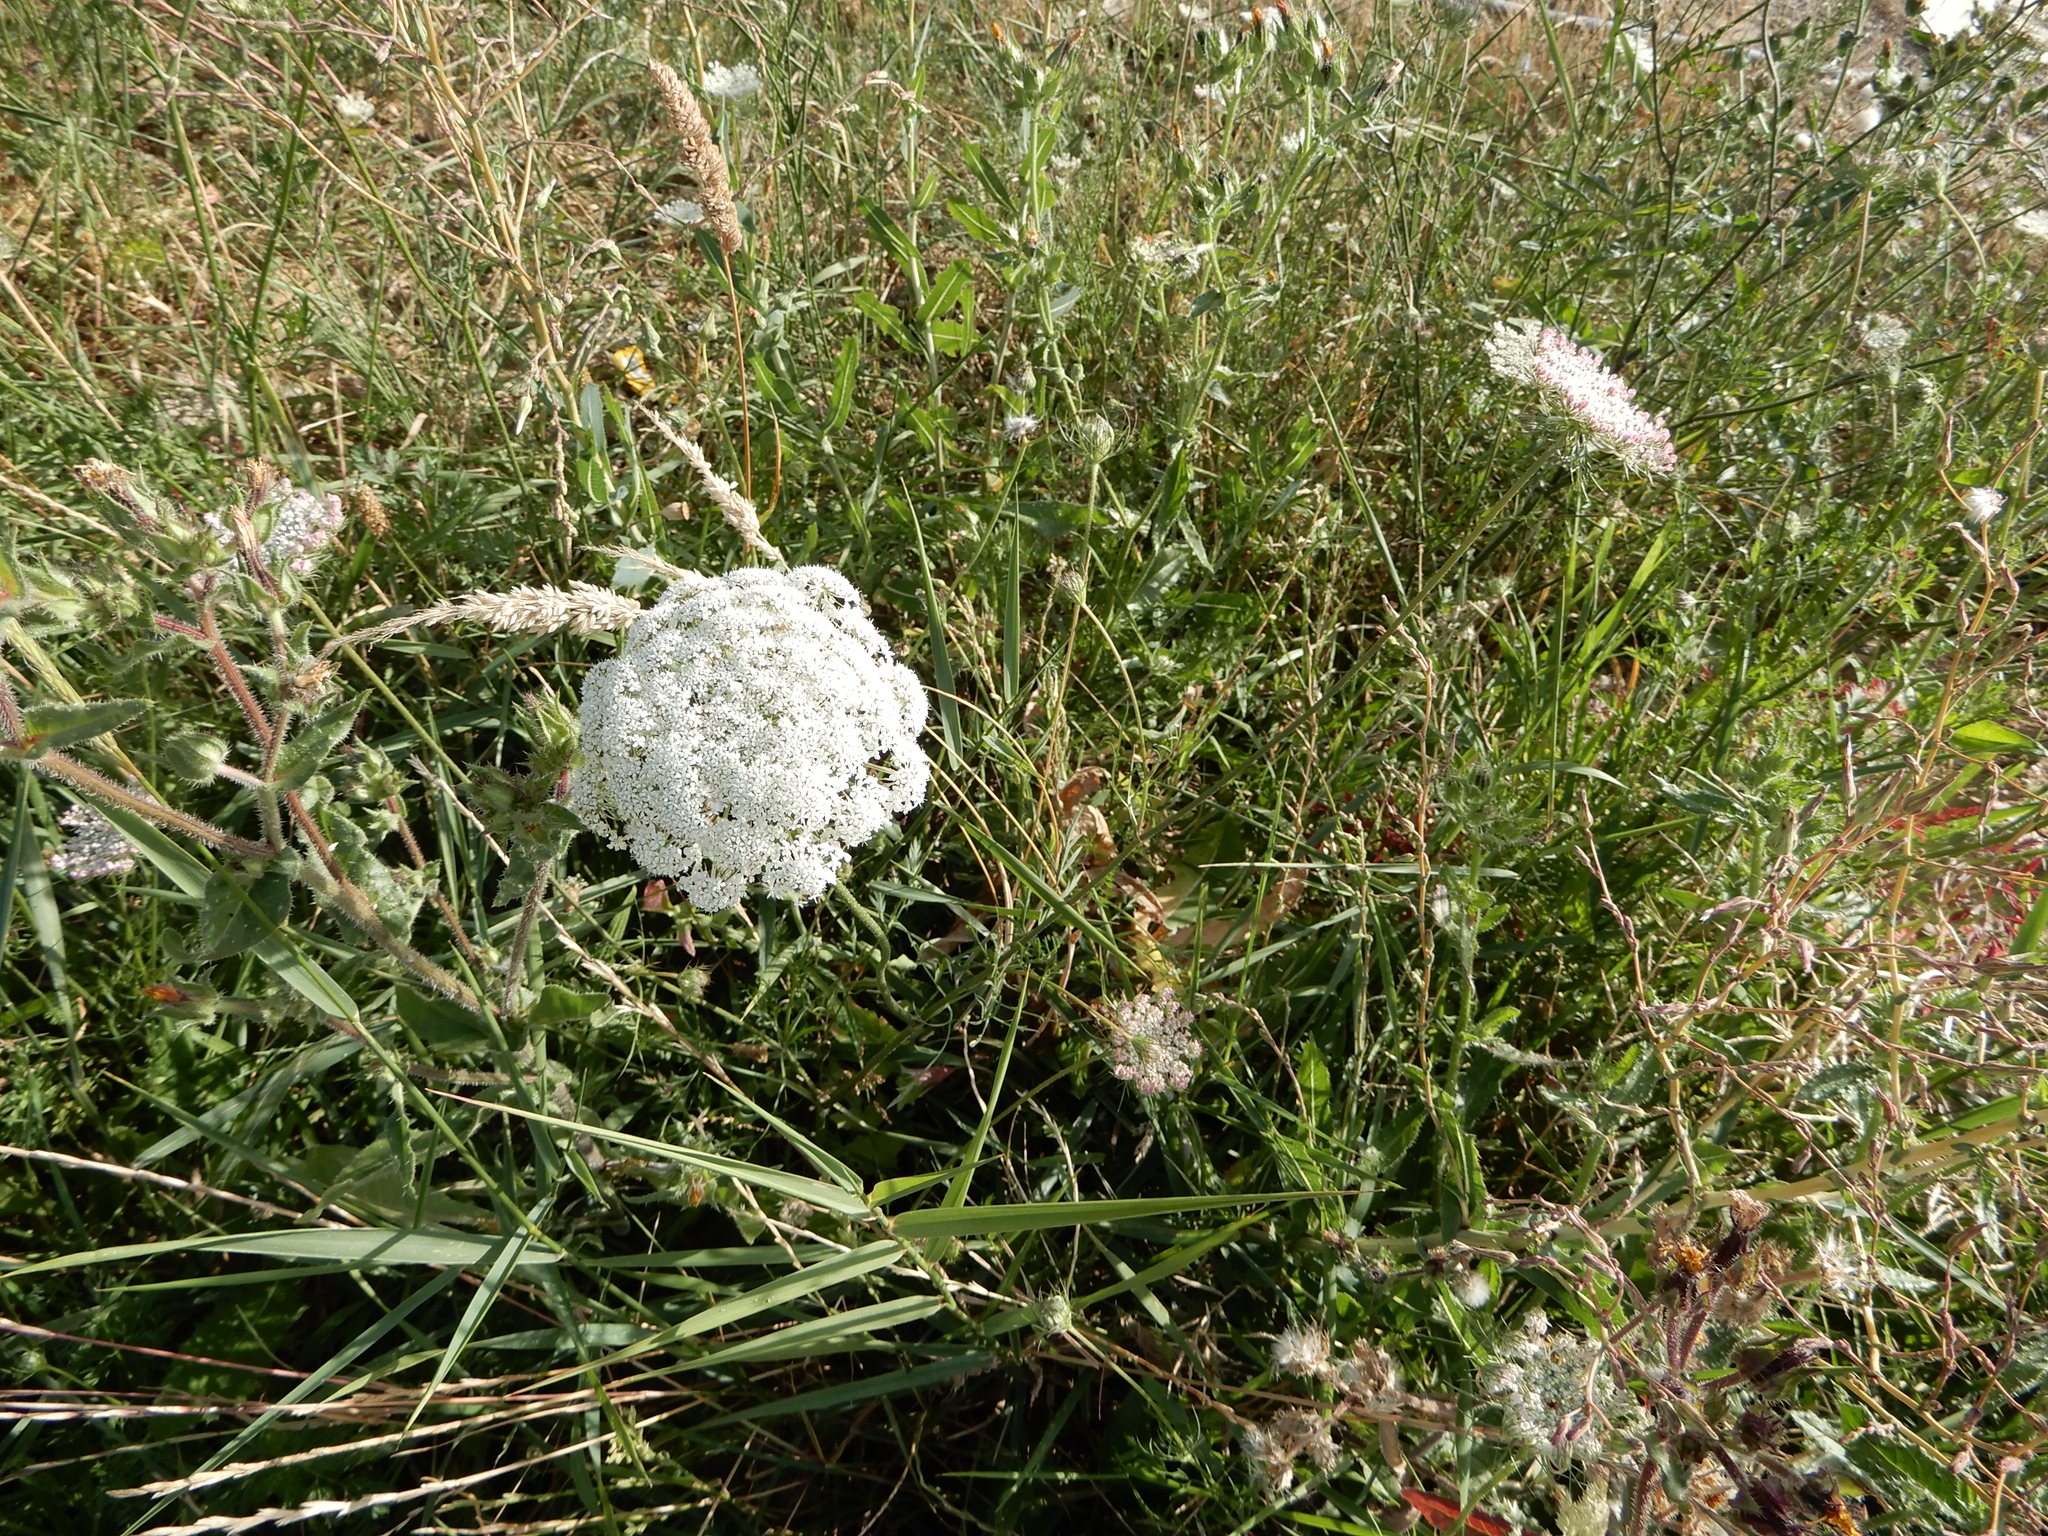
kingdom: Plantae
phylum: Tracheophyta
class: Magnoliopsida
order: Apiales
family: Apiaceae
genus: Daucus
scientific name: Daucus carota
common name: Wild carrot
